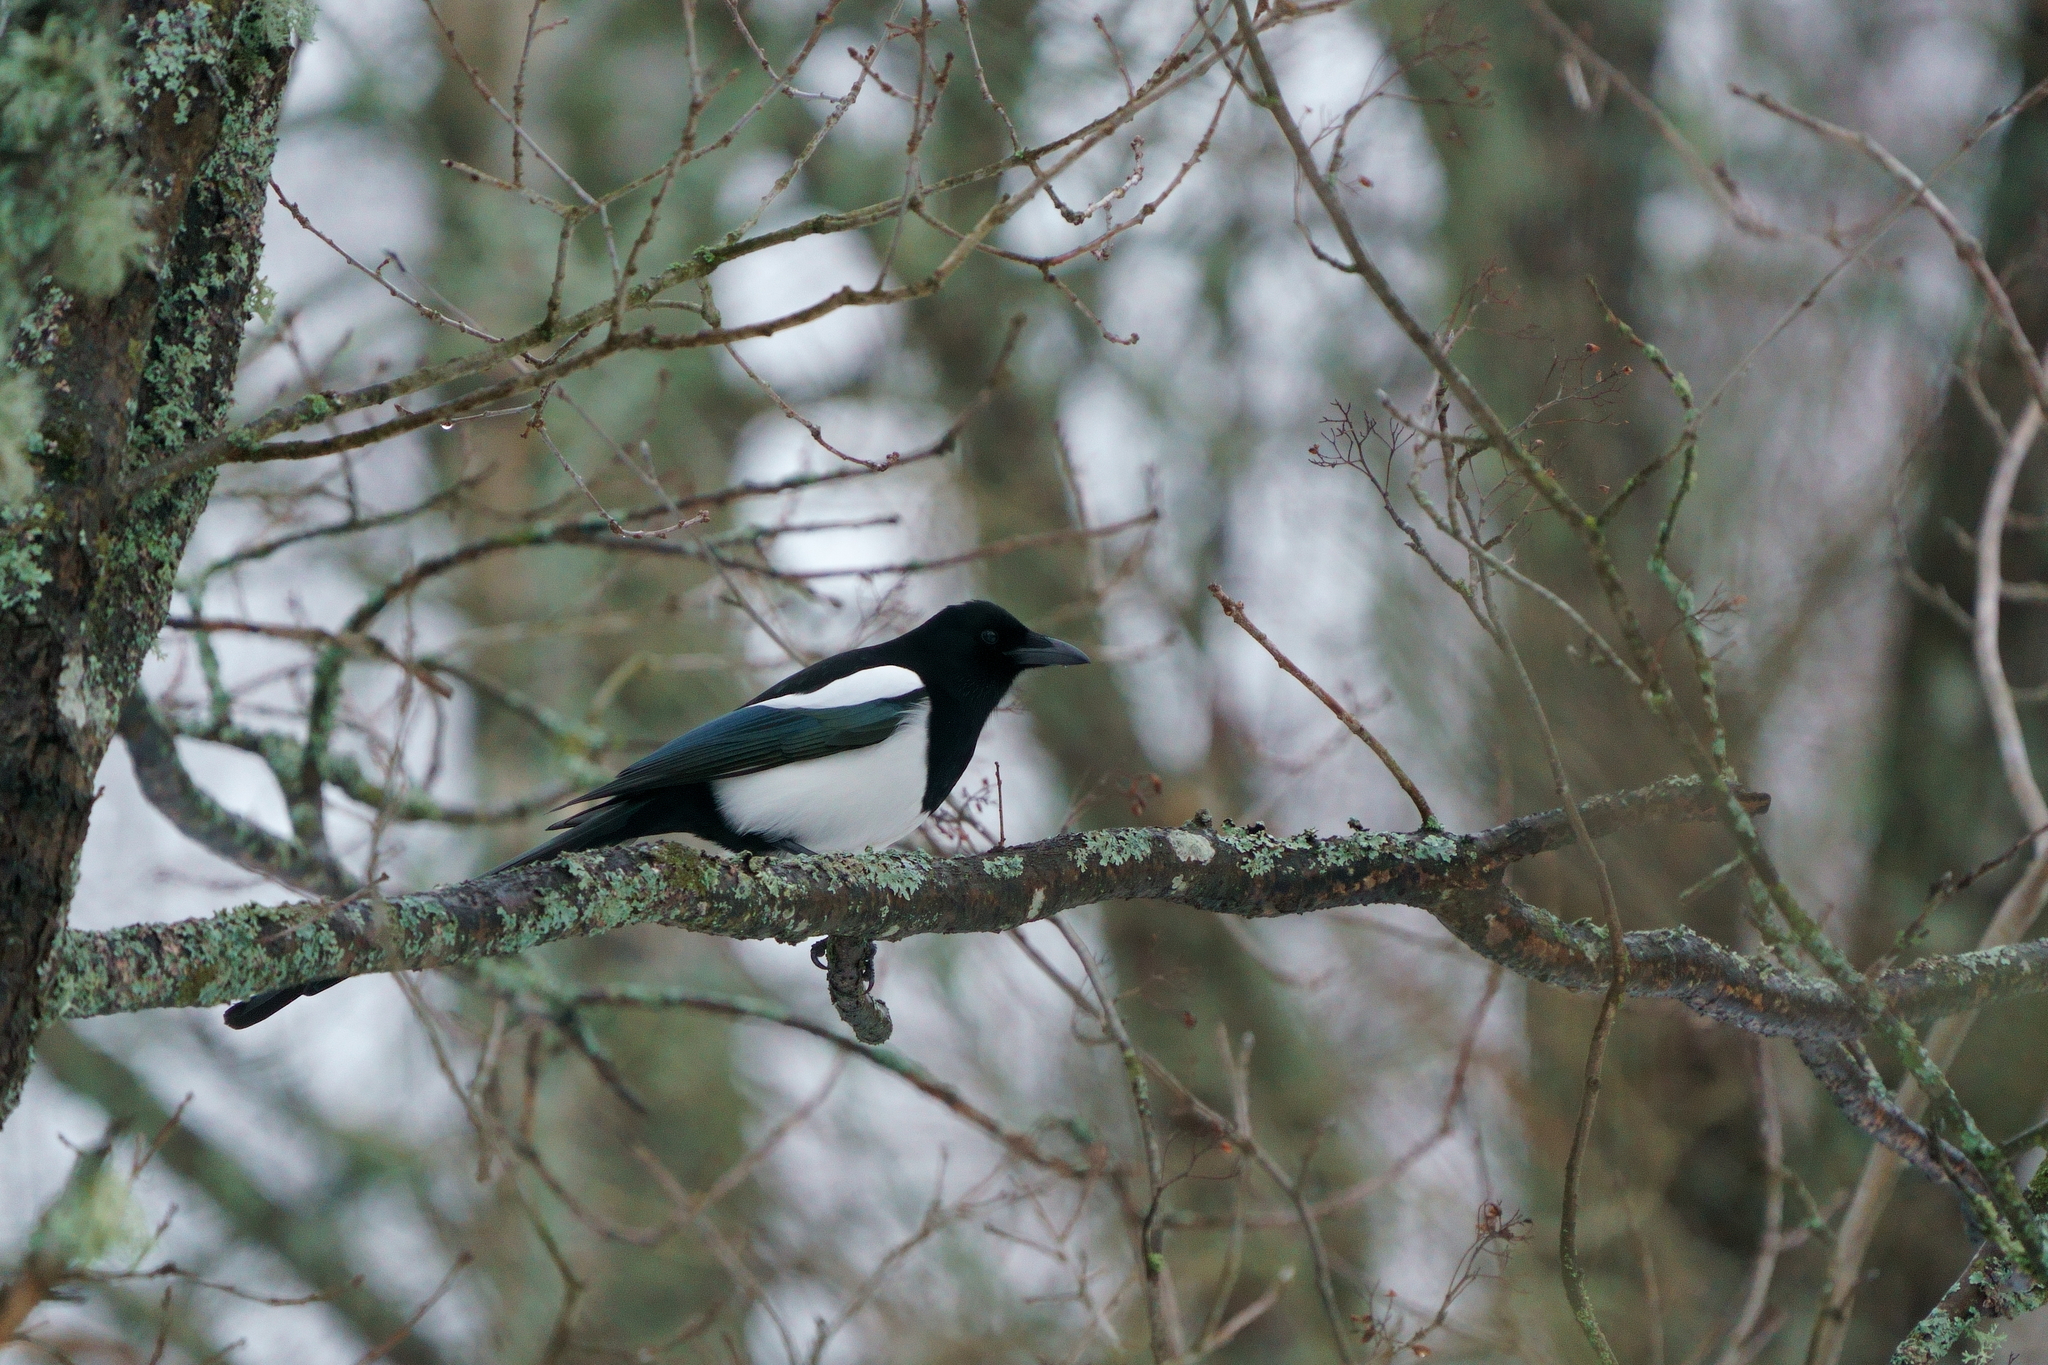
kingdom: Animalia
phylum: Chordata
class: Aves
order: Passeriformes
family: Corvidae
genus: Pica
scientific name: Pica pica
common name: Eurasian magpie
